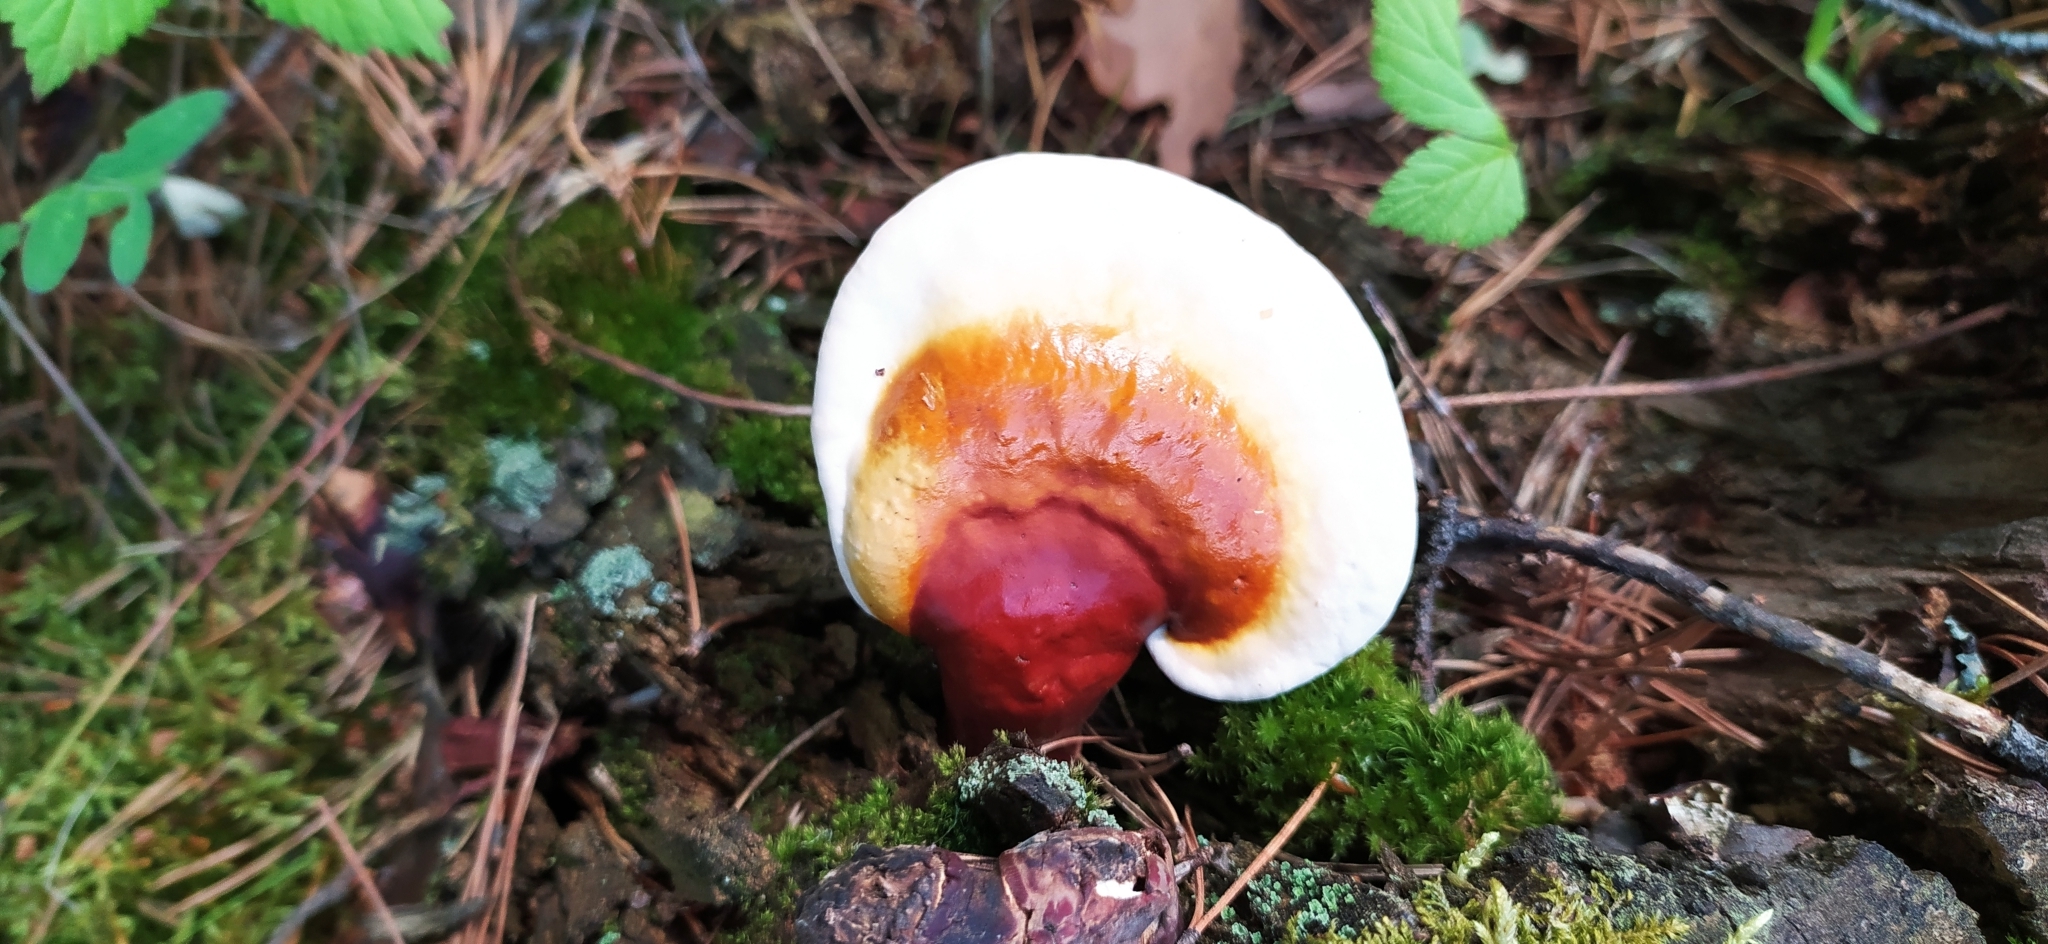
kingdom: Fungi
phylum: Basidiomycota
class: Agaricomycetes
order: Polyporales
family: Polyporaceae
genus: Ganoderma
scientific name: Ganoderma lucidum
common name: Lacquered bracket
